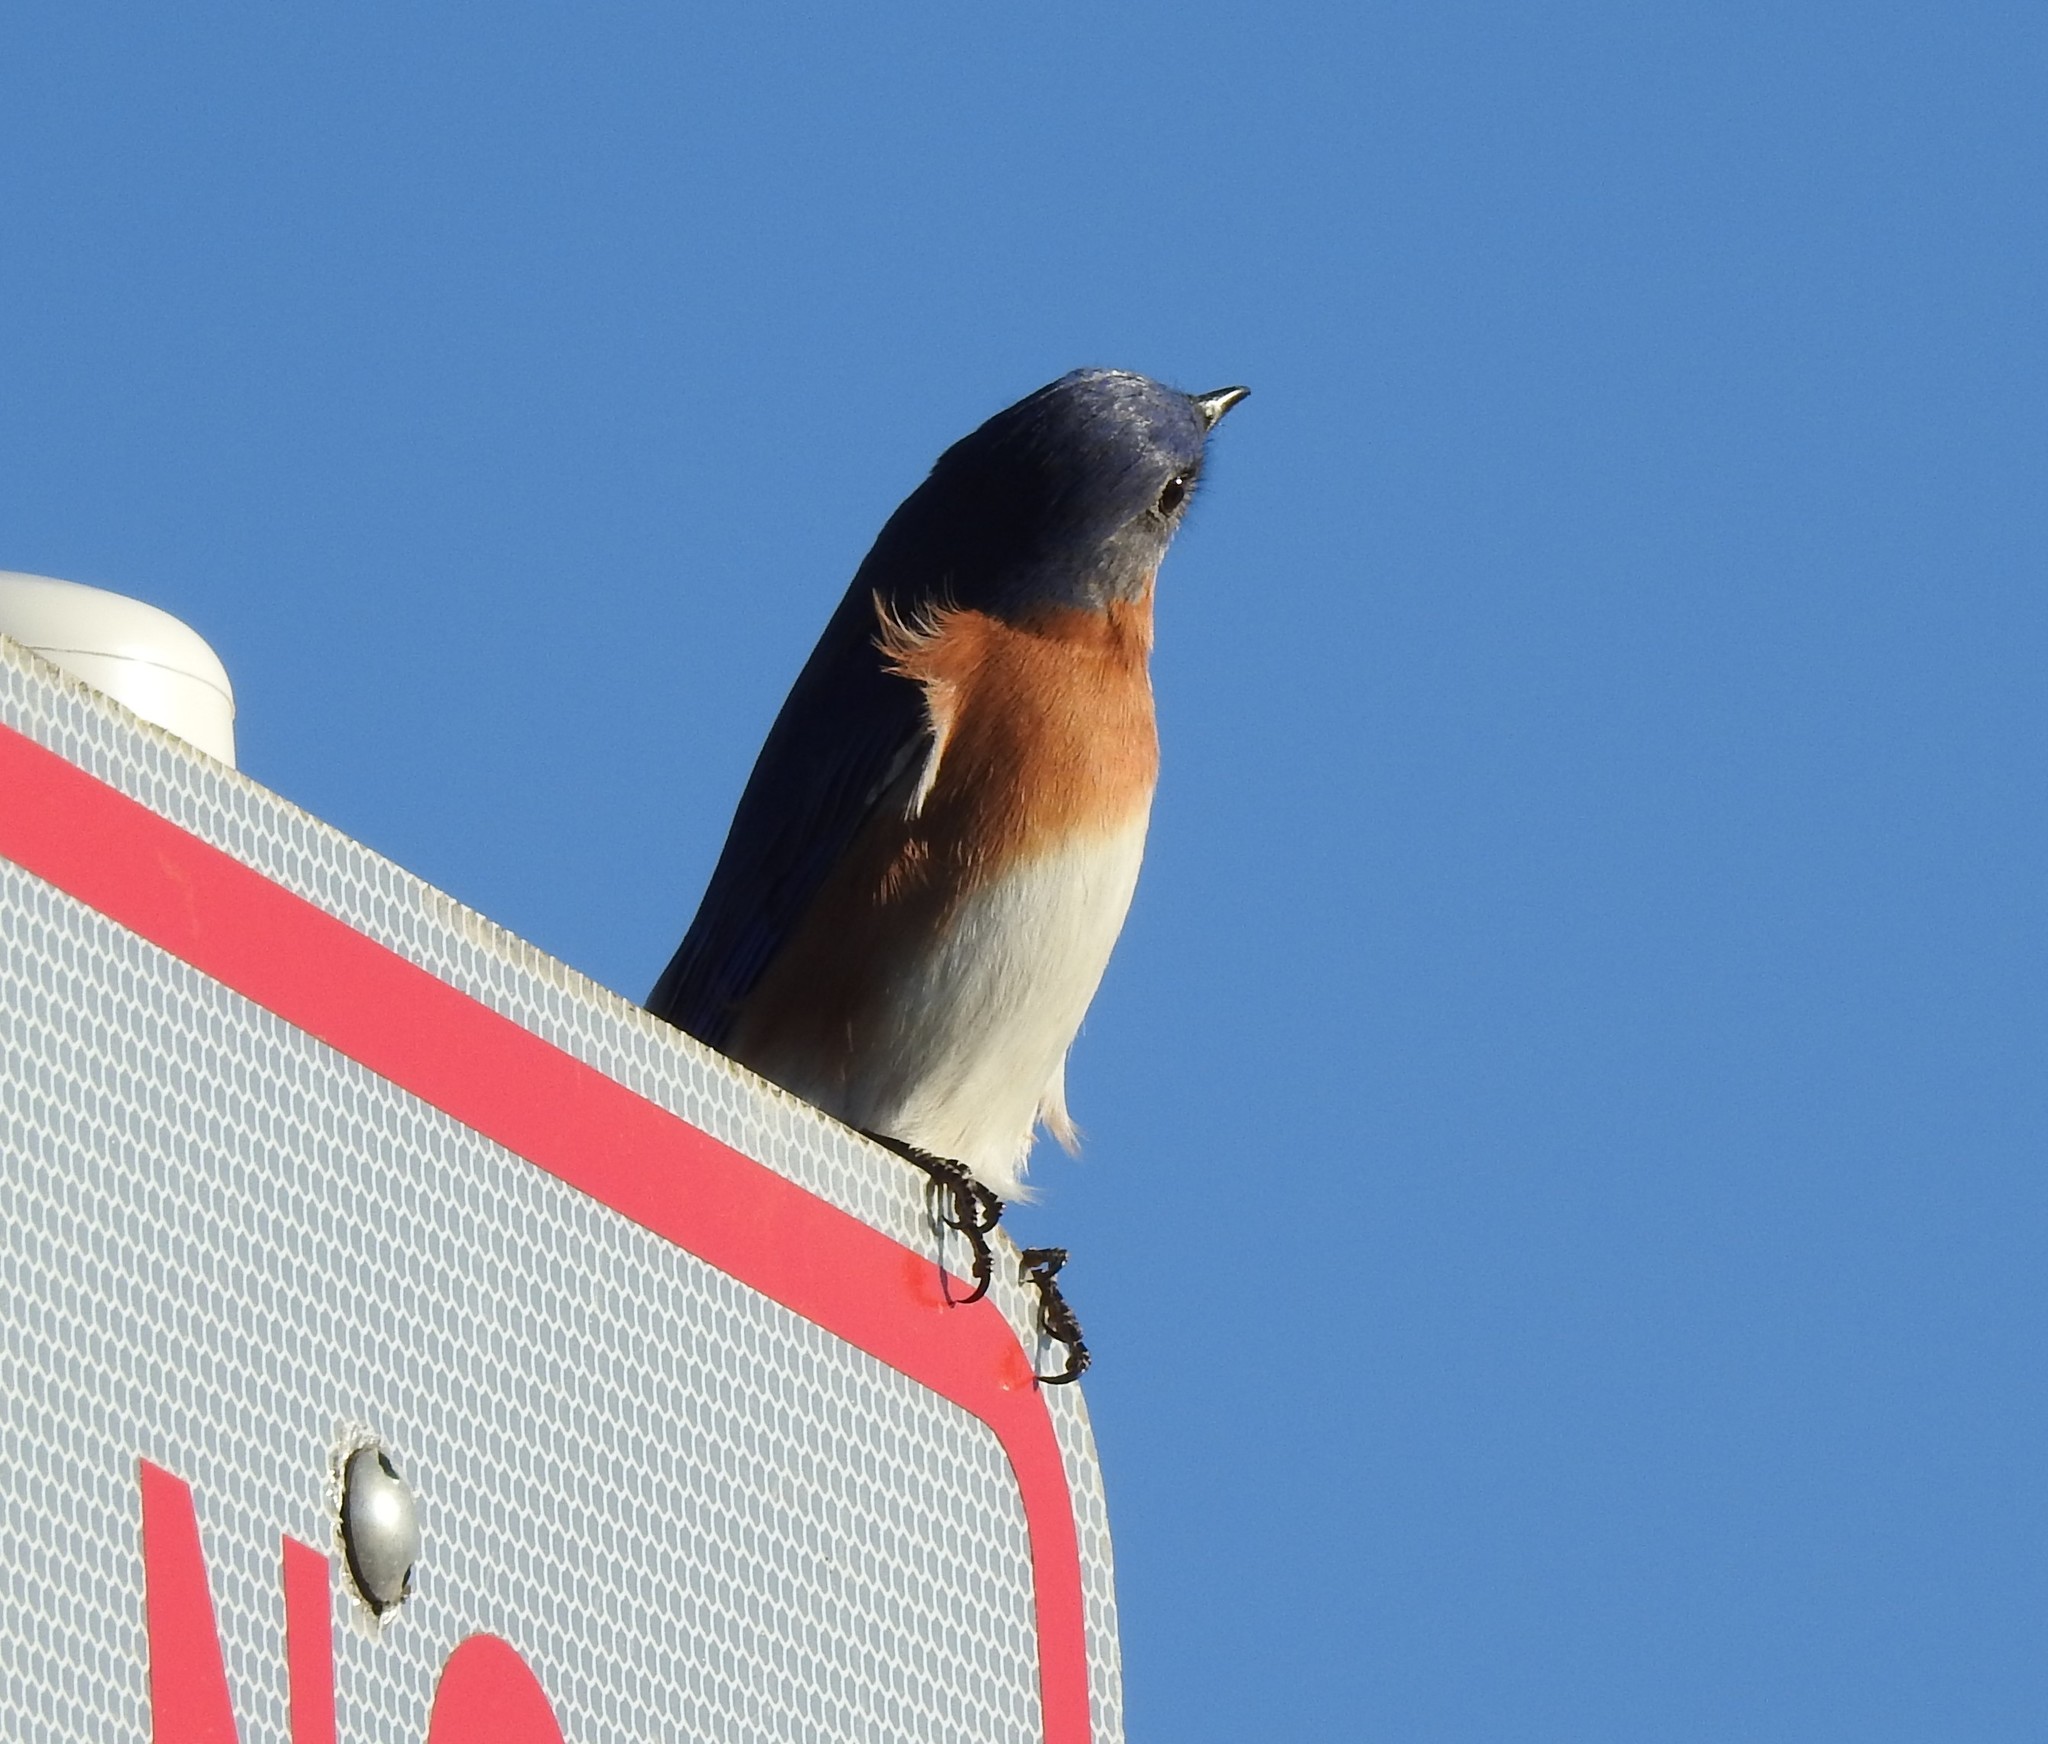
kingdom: Animalia
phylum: Chordata
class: Aves
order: Passeriformes
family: Turdidae
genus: Sialia
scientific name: Sialia sialis
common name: Eastern bluebird
